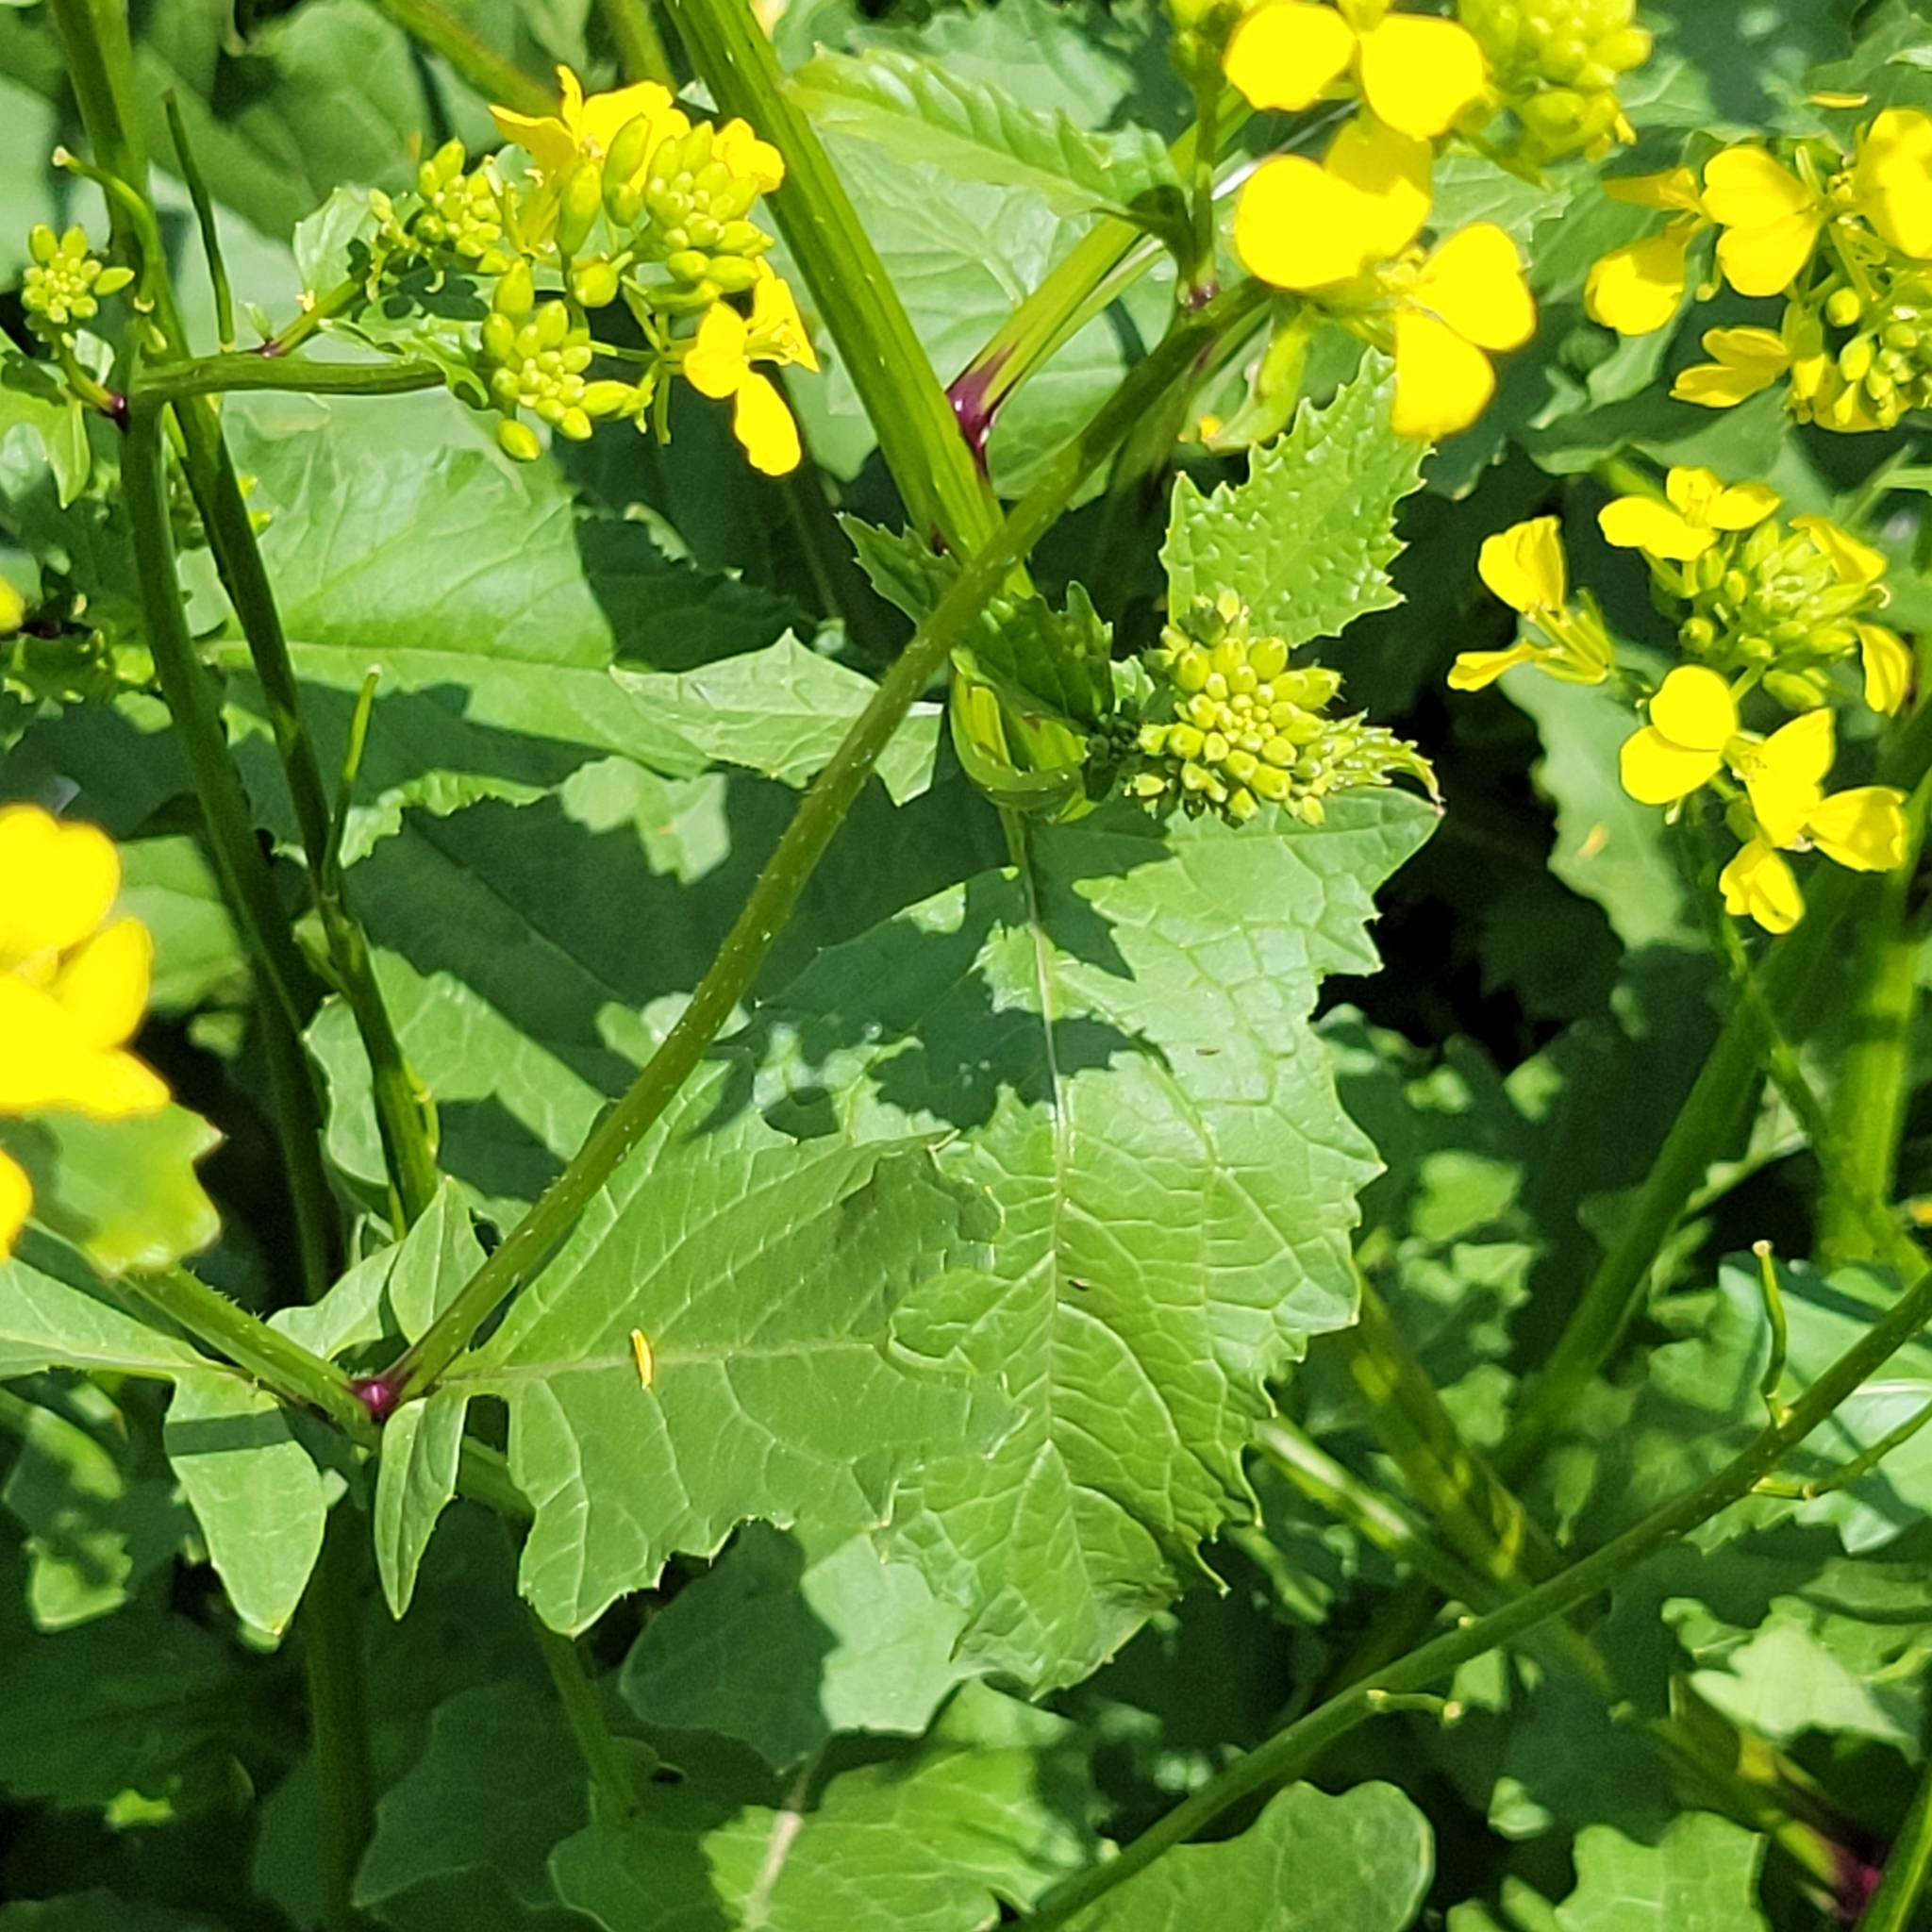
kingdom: Plantae
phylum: Tracheophyta
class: Magnoliopsida
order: Brassicales
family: Brassicaceae
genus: Barbarea
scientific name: Barbarea vulgaris
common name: Cressy-greens
